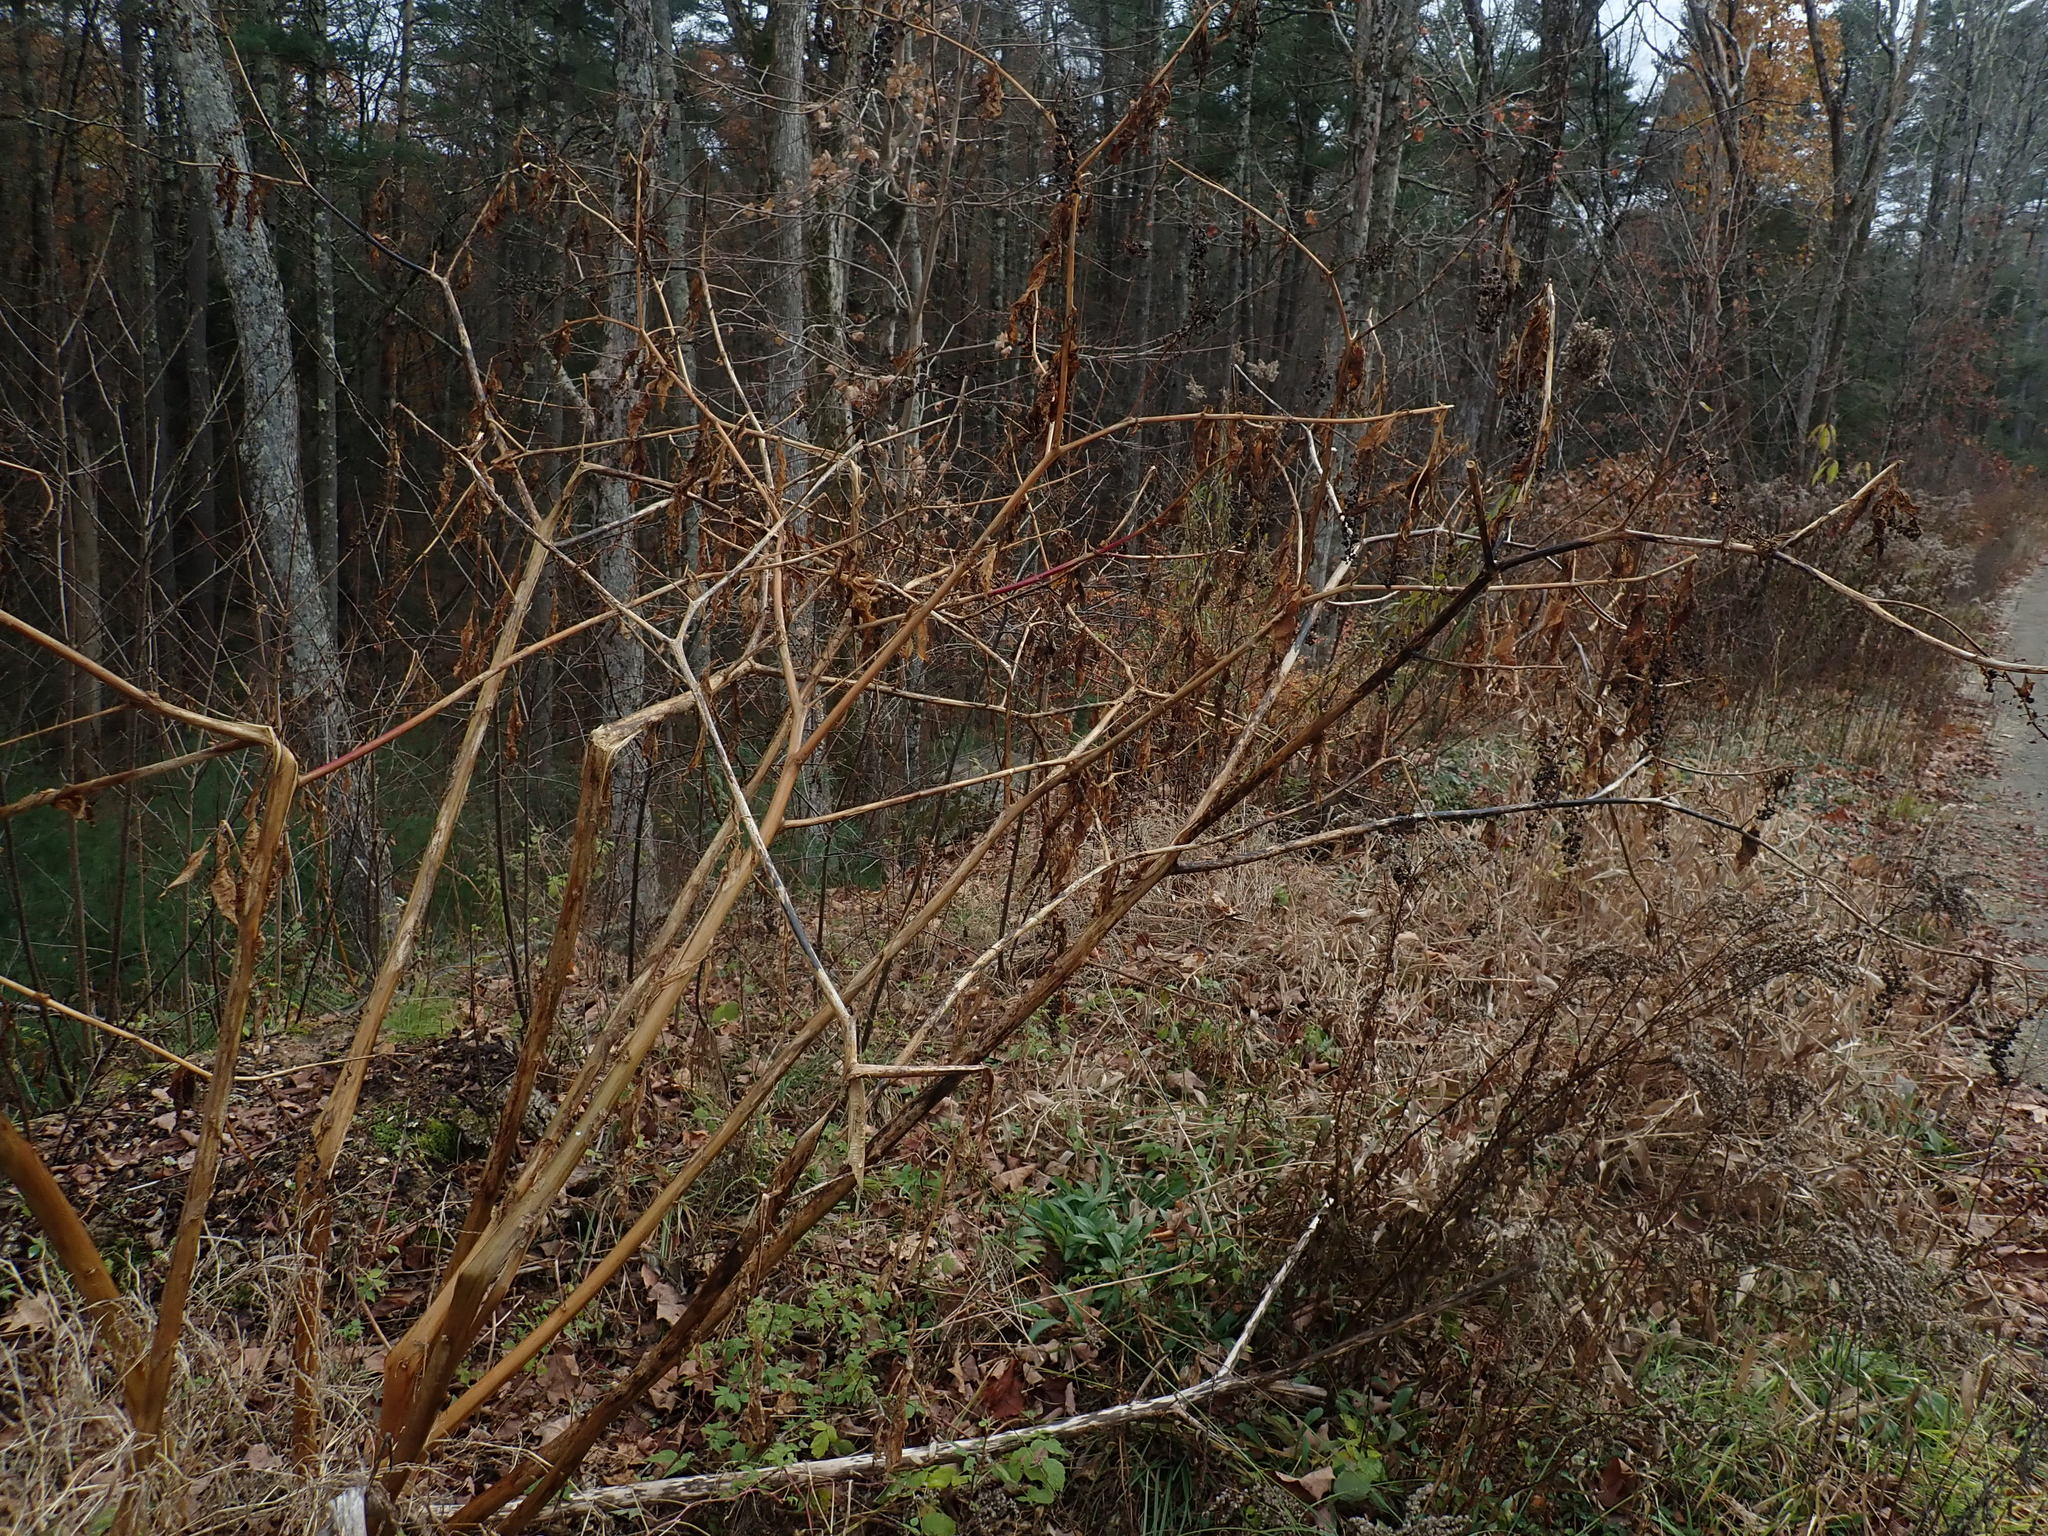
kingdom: Plantae
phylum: Tracheophyta
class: Magnoliopsida
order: Caryophyllales
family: Phytolaccaceae
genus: Phytolacca
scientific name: Phytolacca americana
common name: American pokeweed
